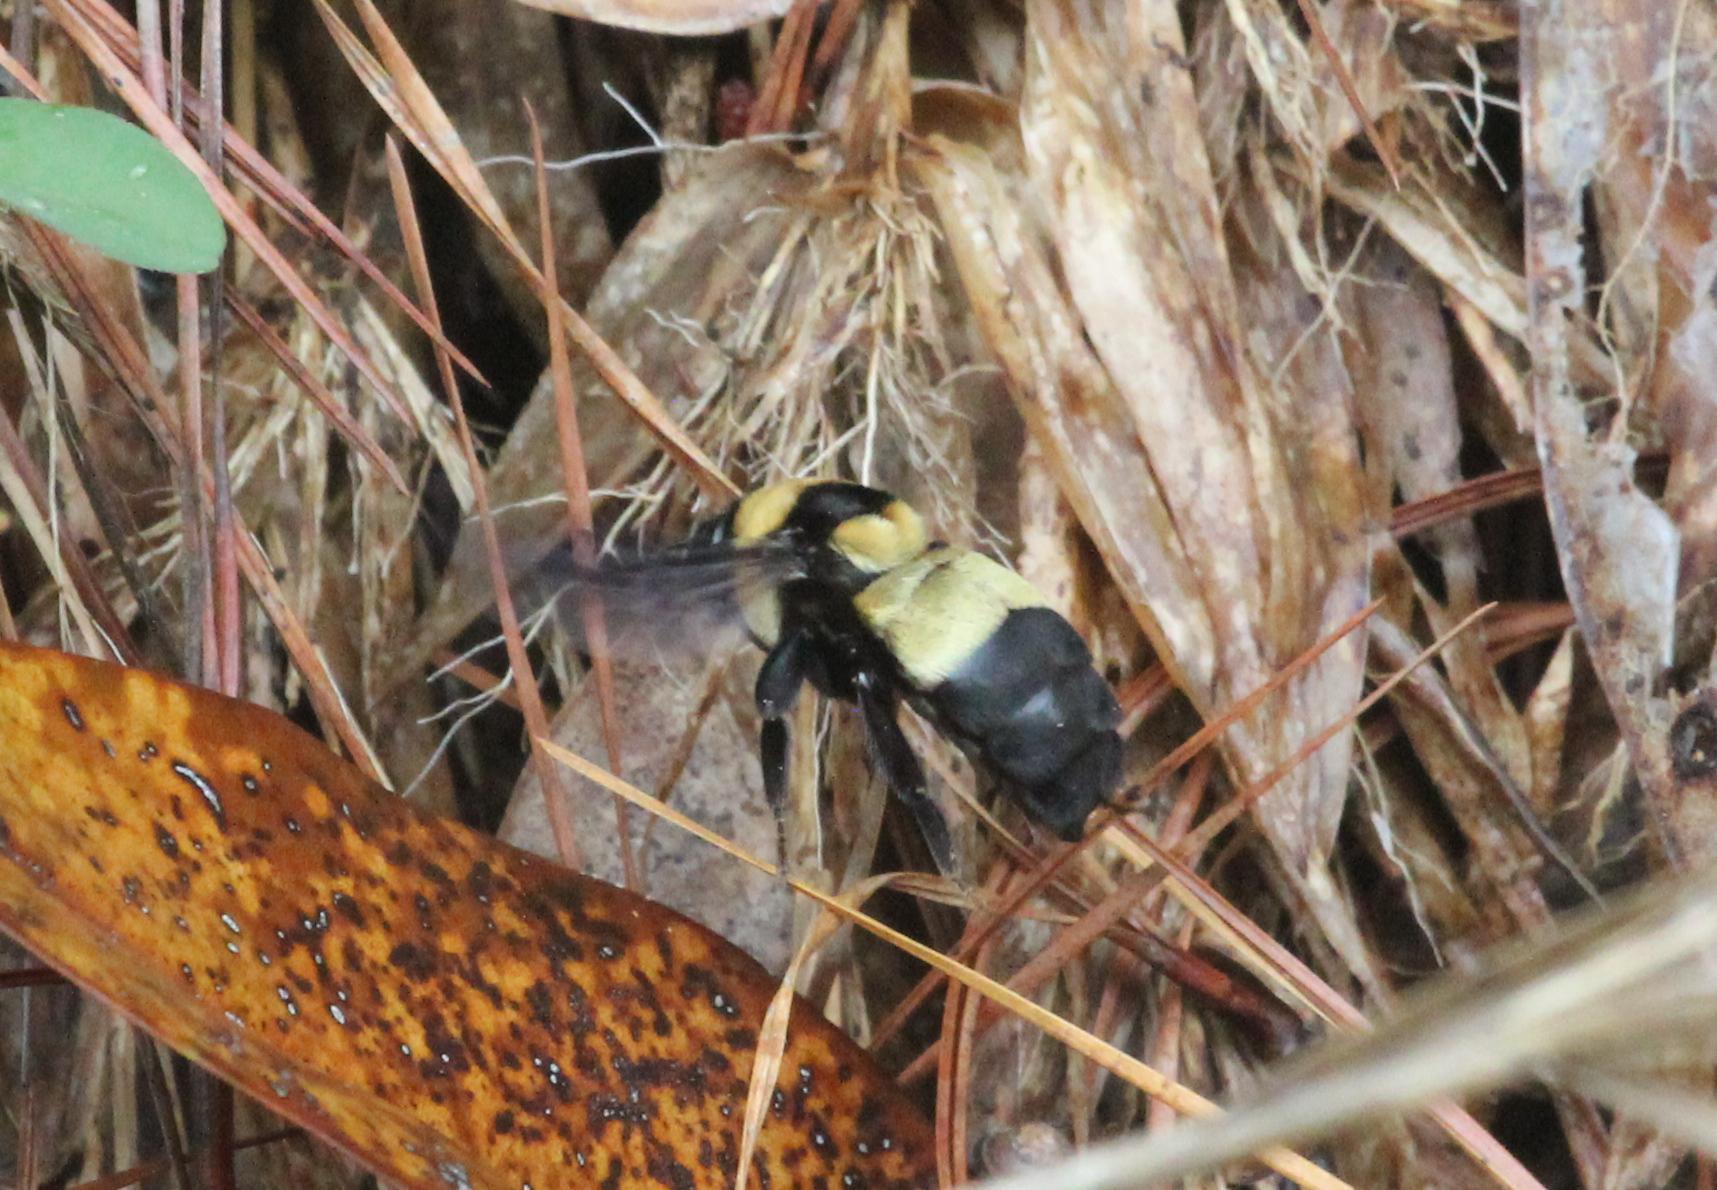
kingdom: Animalia
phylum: Arthropoda
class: Insecta
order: Hymenoptera
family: Apidae
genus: Bombus
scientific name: Bombus fraternus
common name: Southern plains bumble bee
